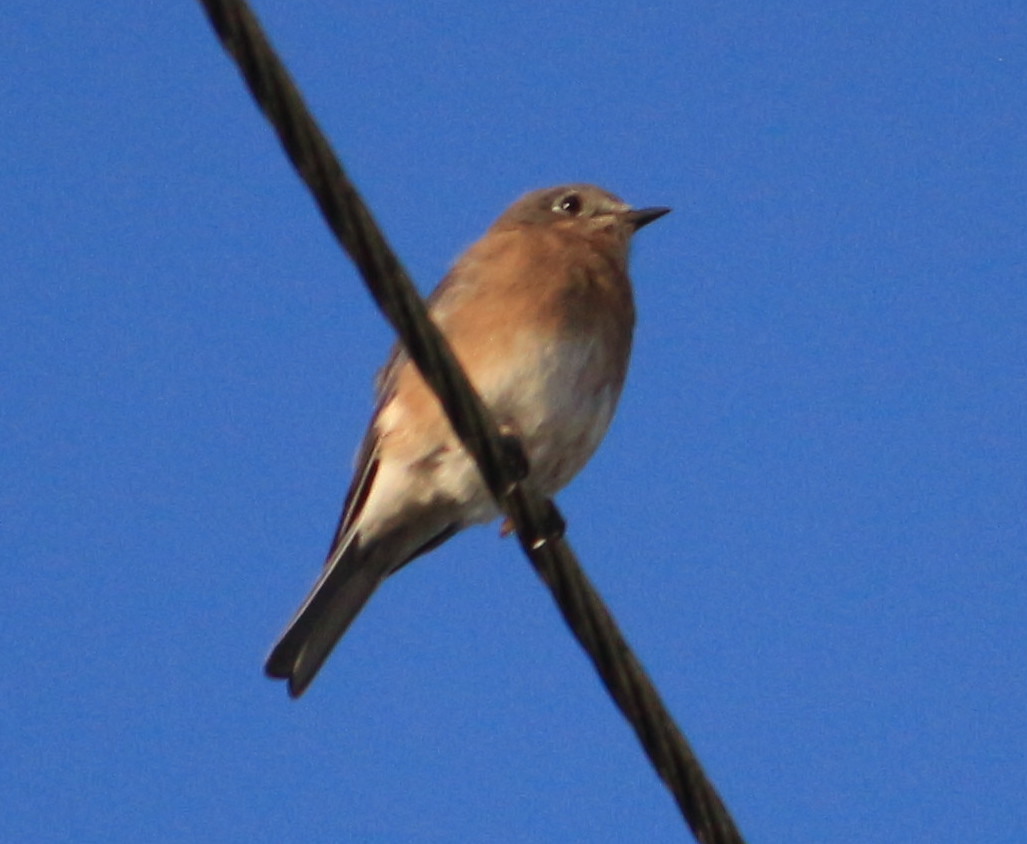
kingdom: Animalia
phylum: Chordata
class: Aves
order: Passeriformes
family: Turdidae
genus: Sialia
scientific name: Sialia sialis
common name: Eastern bluebird
